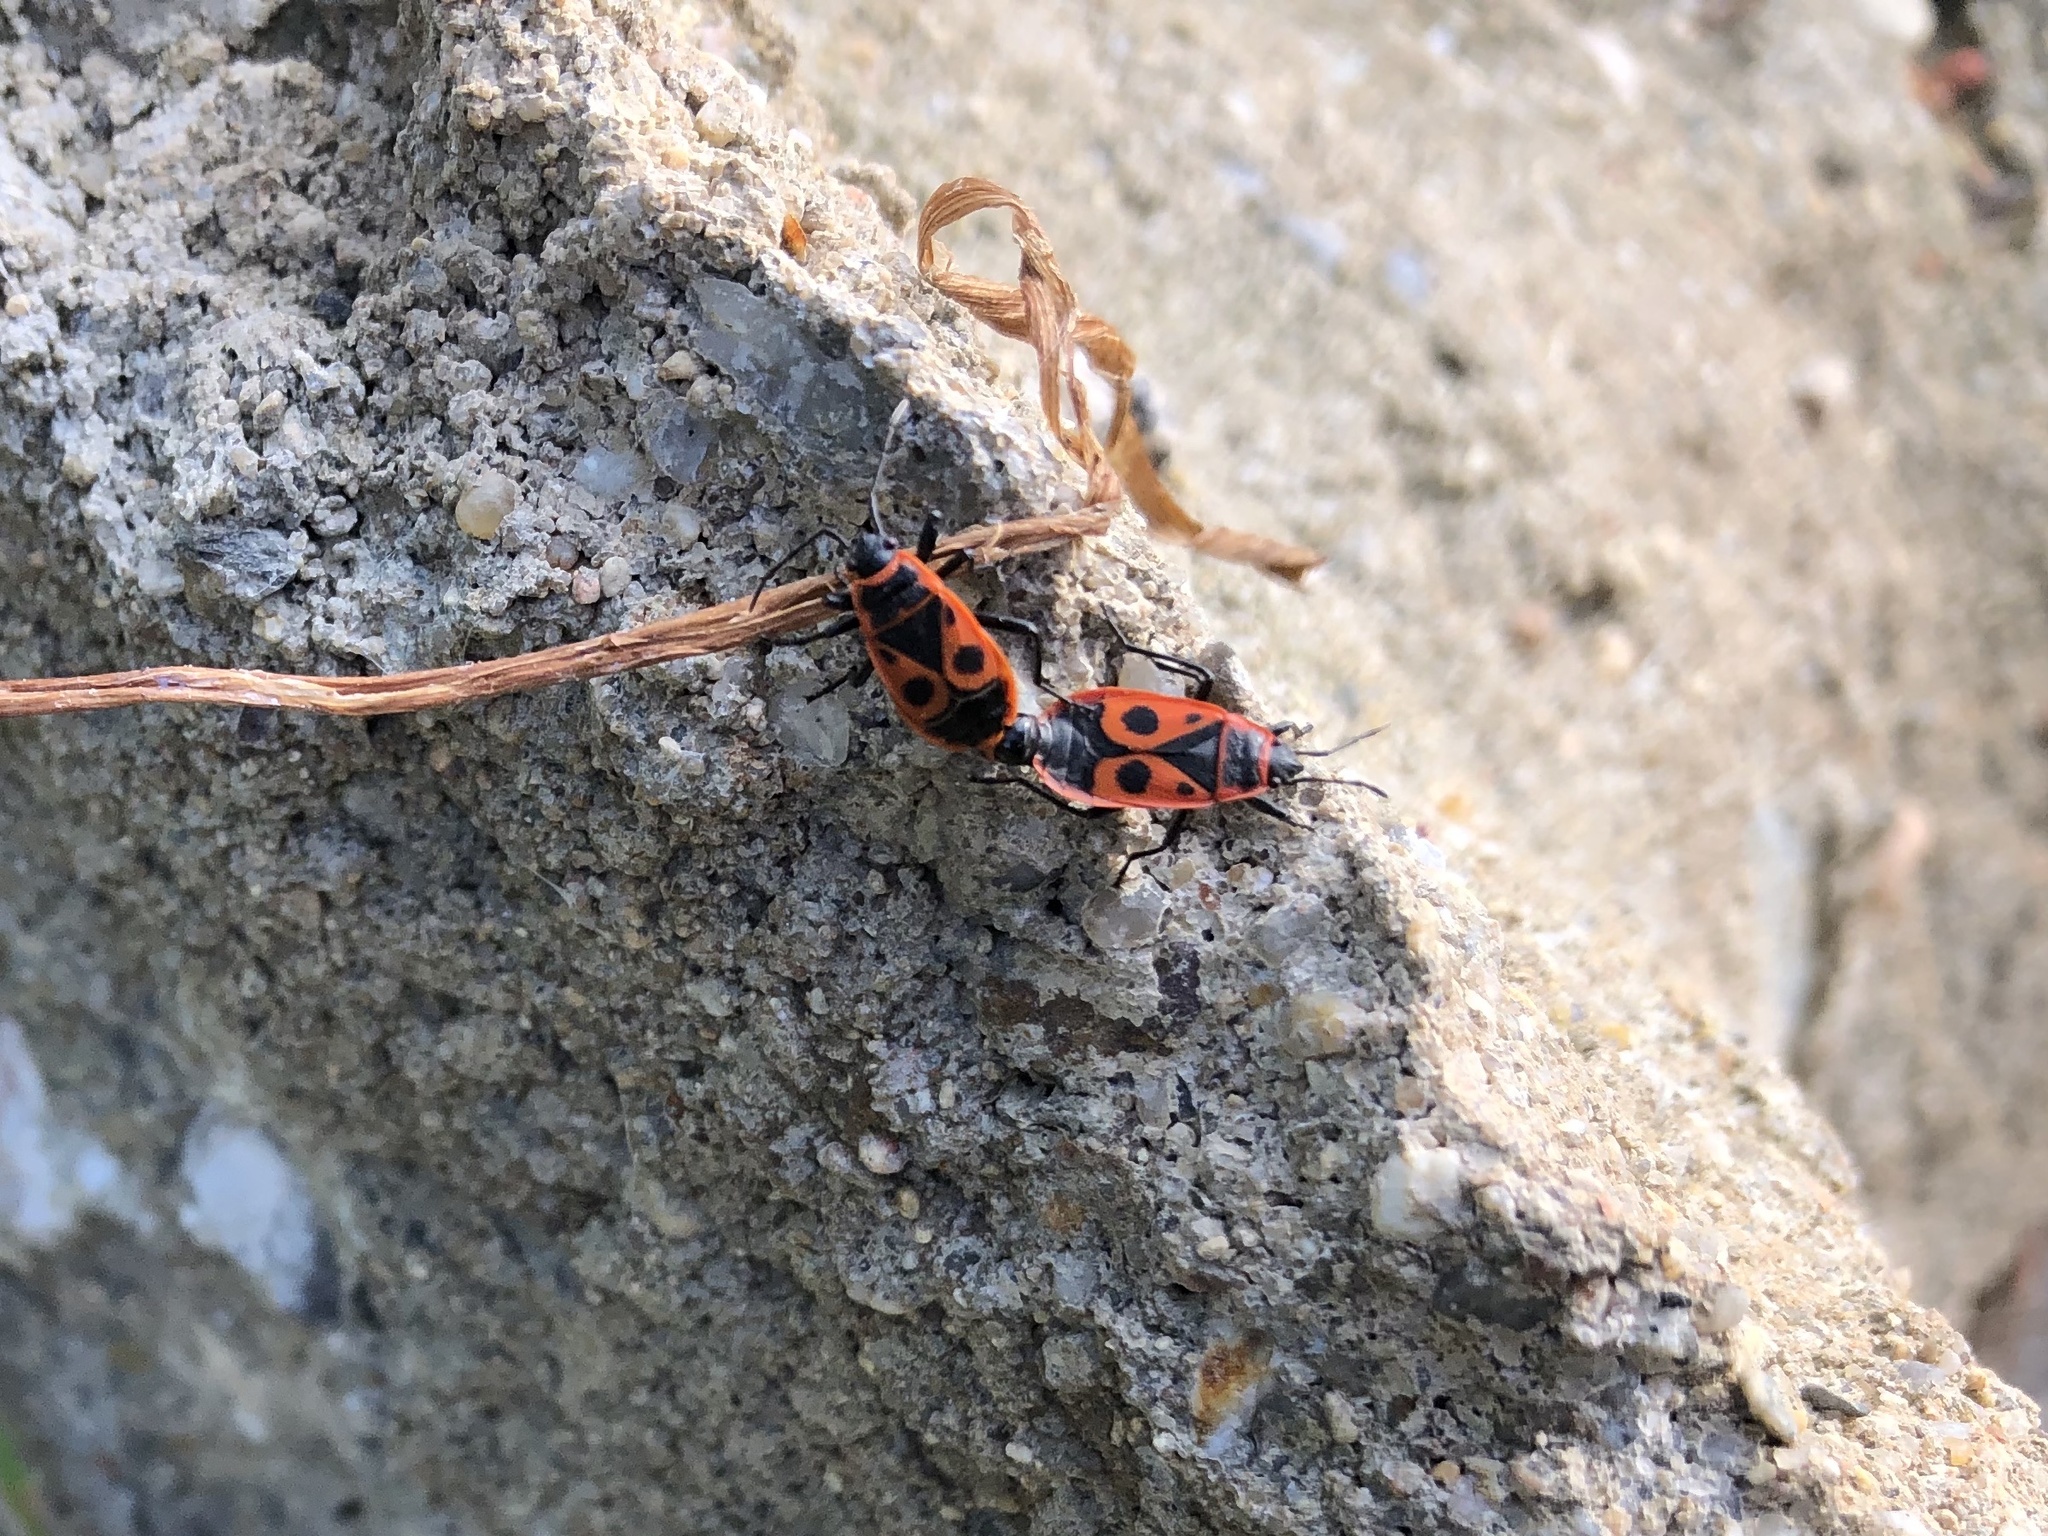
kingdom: Animalia
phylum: Arthropoda
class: Insecta
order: Hemiptera
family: Pyrrhocoridae
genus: Pyrrhocoris
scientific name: Pyrrhocoris apterus
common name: Firebug
